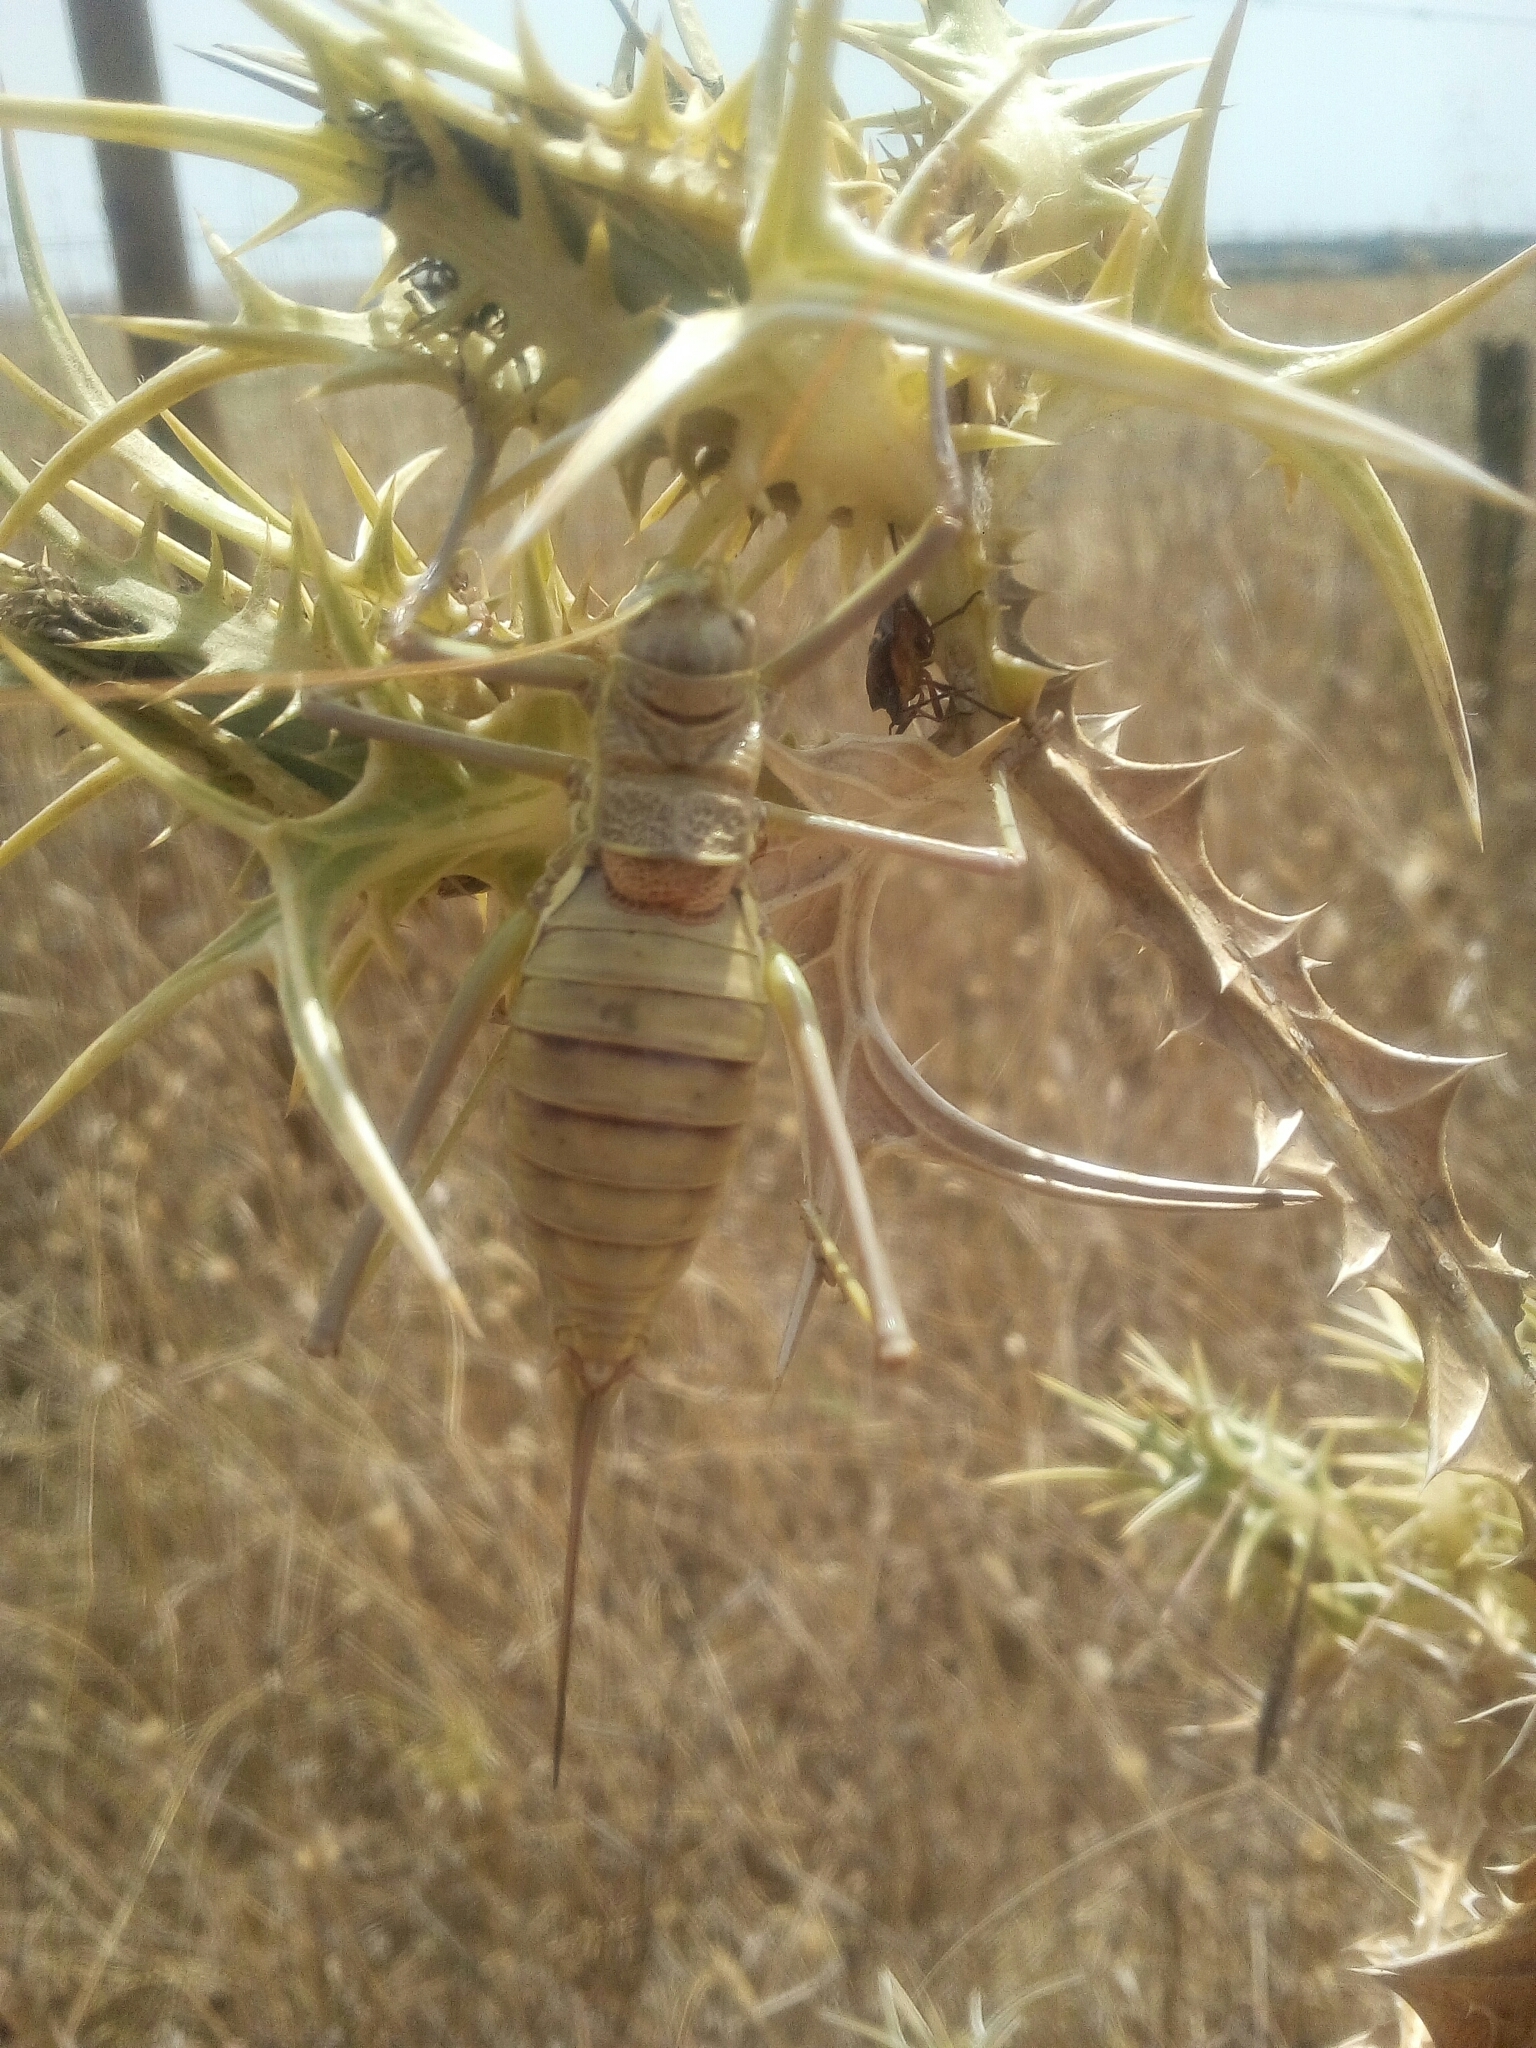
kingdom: Animalia
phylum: Arthropoda
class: Insecta
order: Orthoptera
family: Tettigoniidae
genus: Steropleurus
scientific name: Steropleurus pseudolus
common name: Pseudolus' saddle bush-cricket
